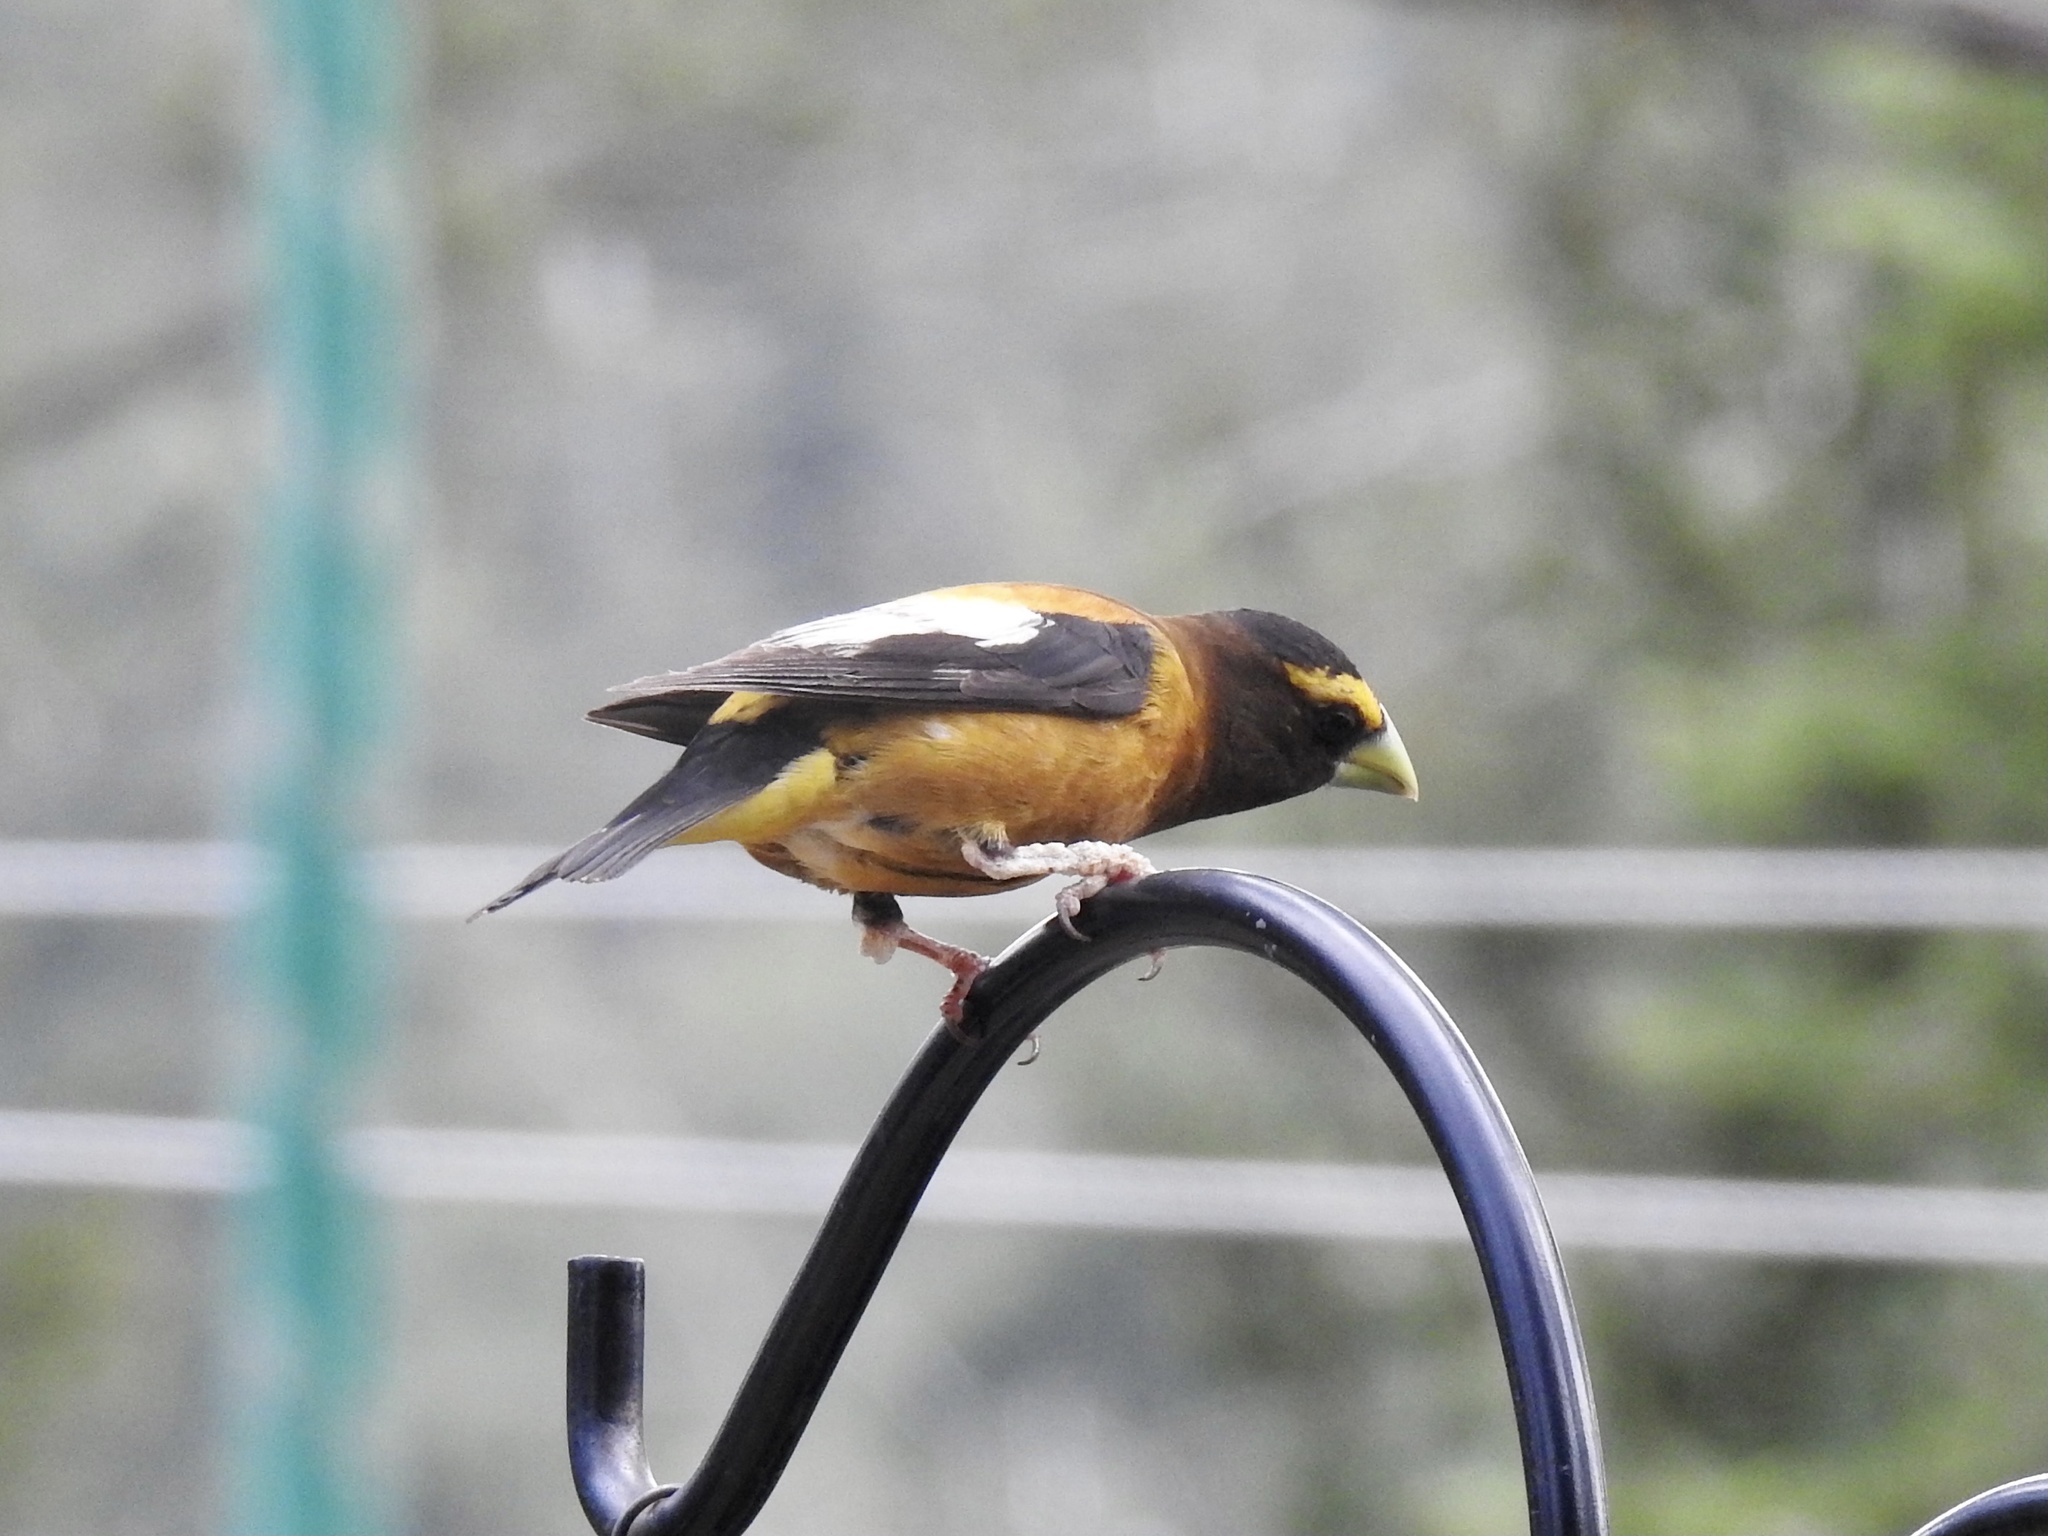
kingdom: Animalia
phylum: Chordata
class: Aves
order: Passeriformes
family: Fringillidae
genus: Hesperiphona
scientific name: Hesperiphona vespertina
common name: Evening grosbeak
